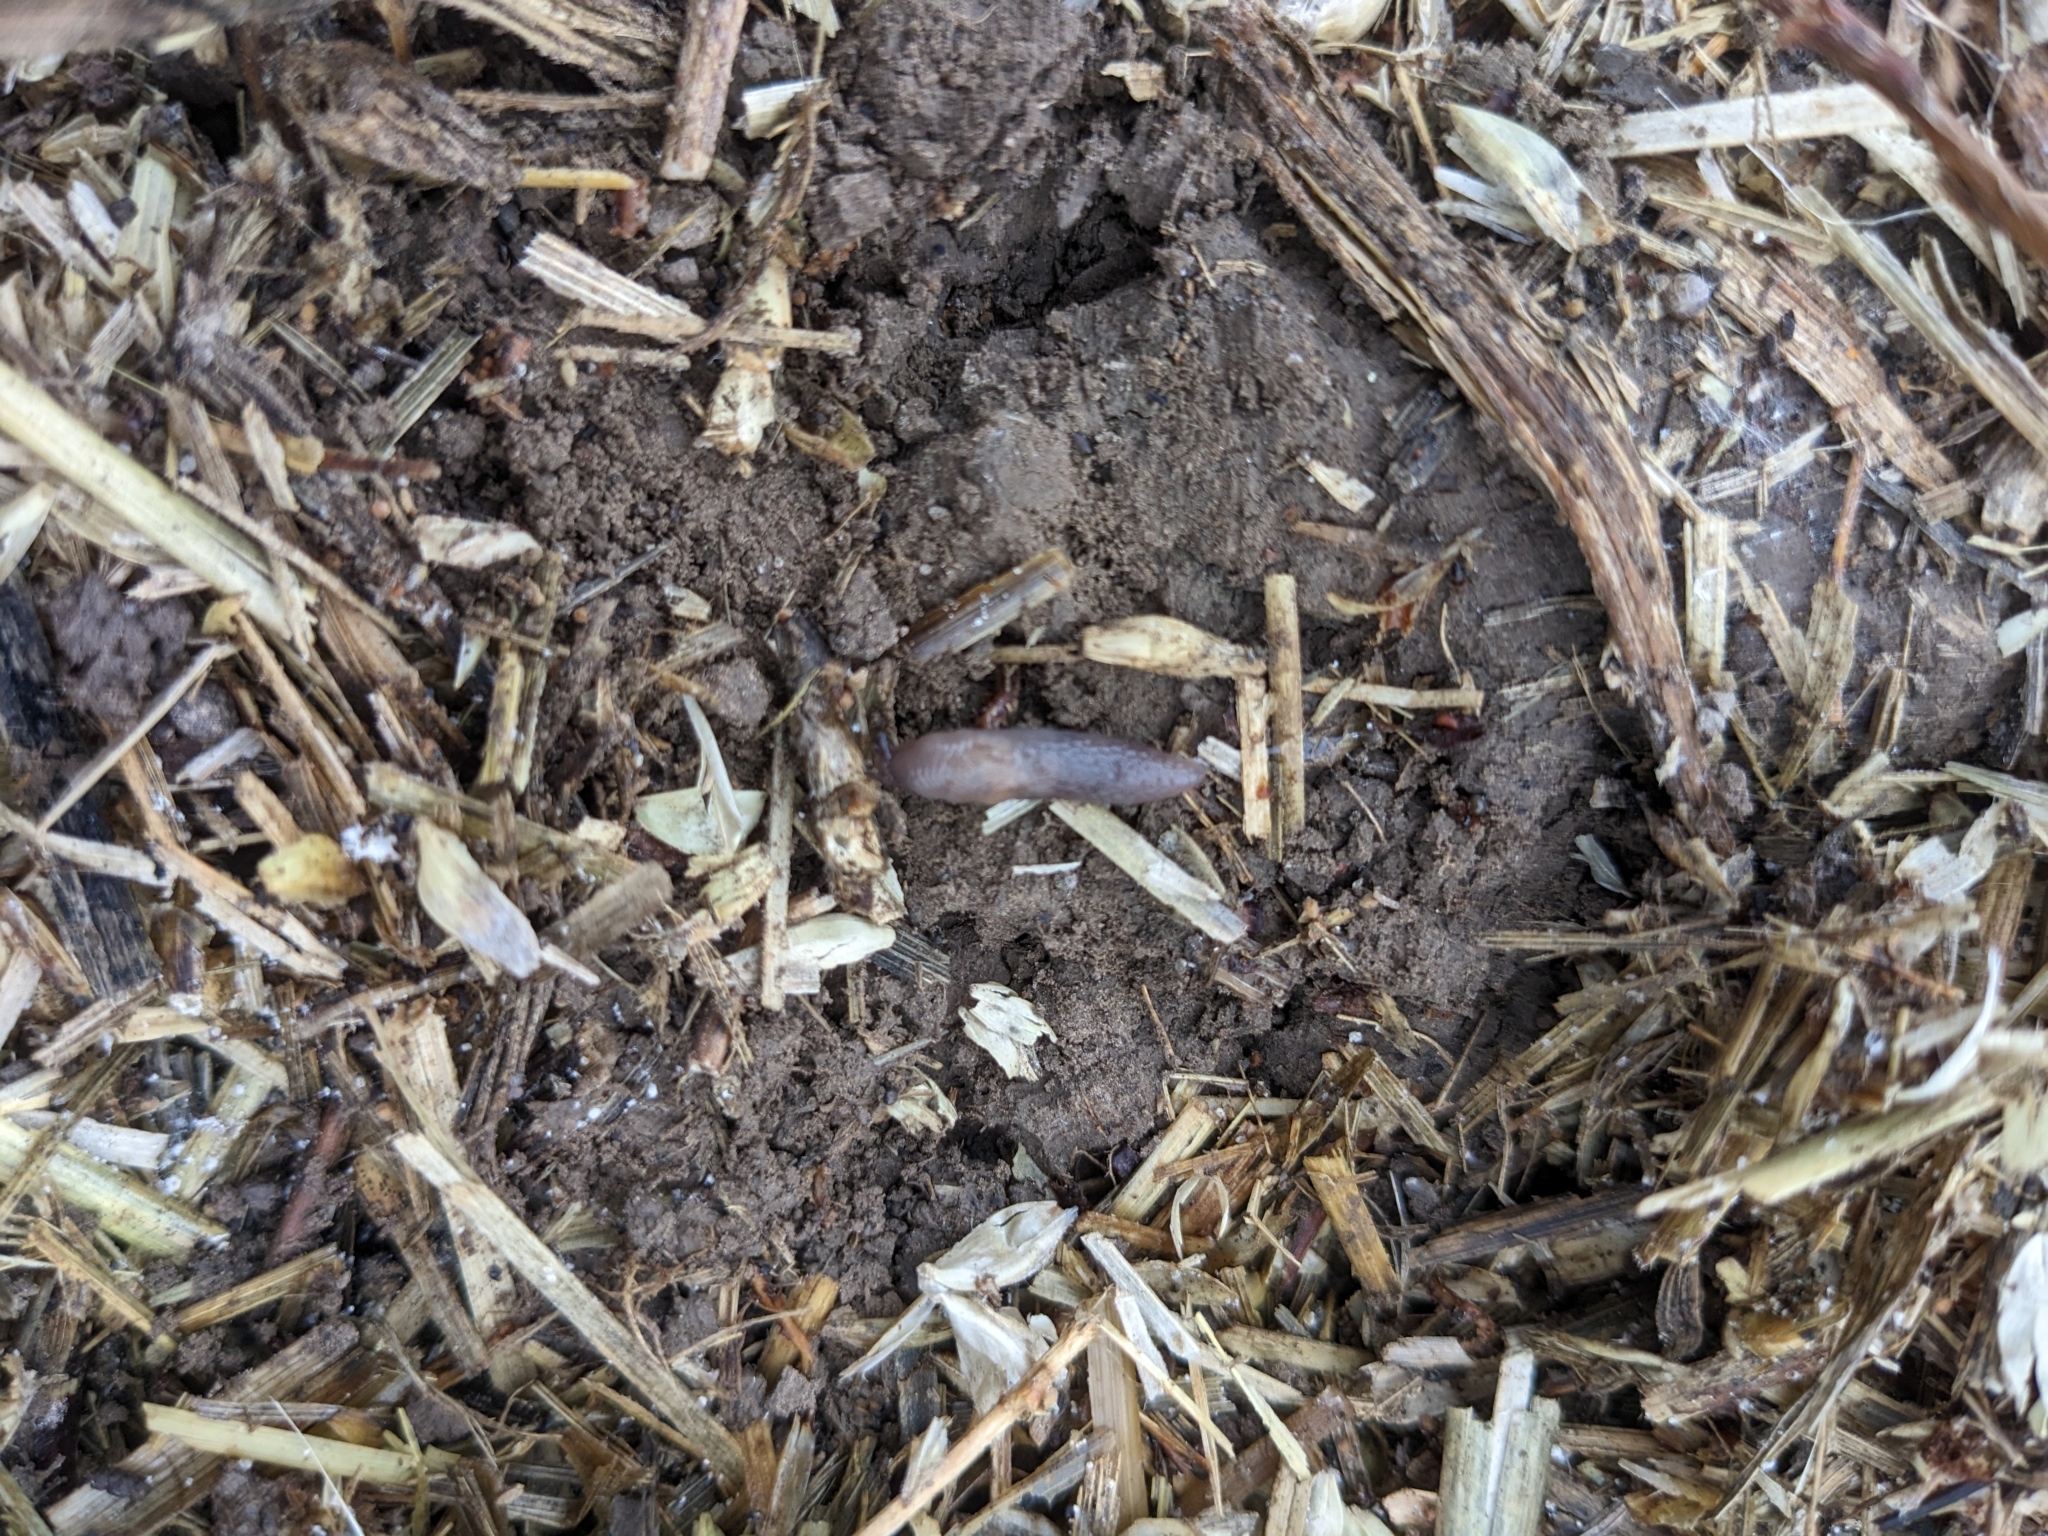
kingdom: Animalia
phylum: Mollusca
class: Gastropoda
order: Stylommatophora
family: Agriolimacidae
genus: Deroceras
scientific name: Deroceras invadens
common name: Caruana's slug
